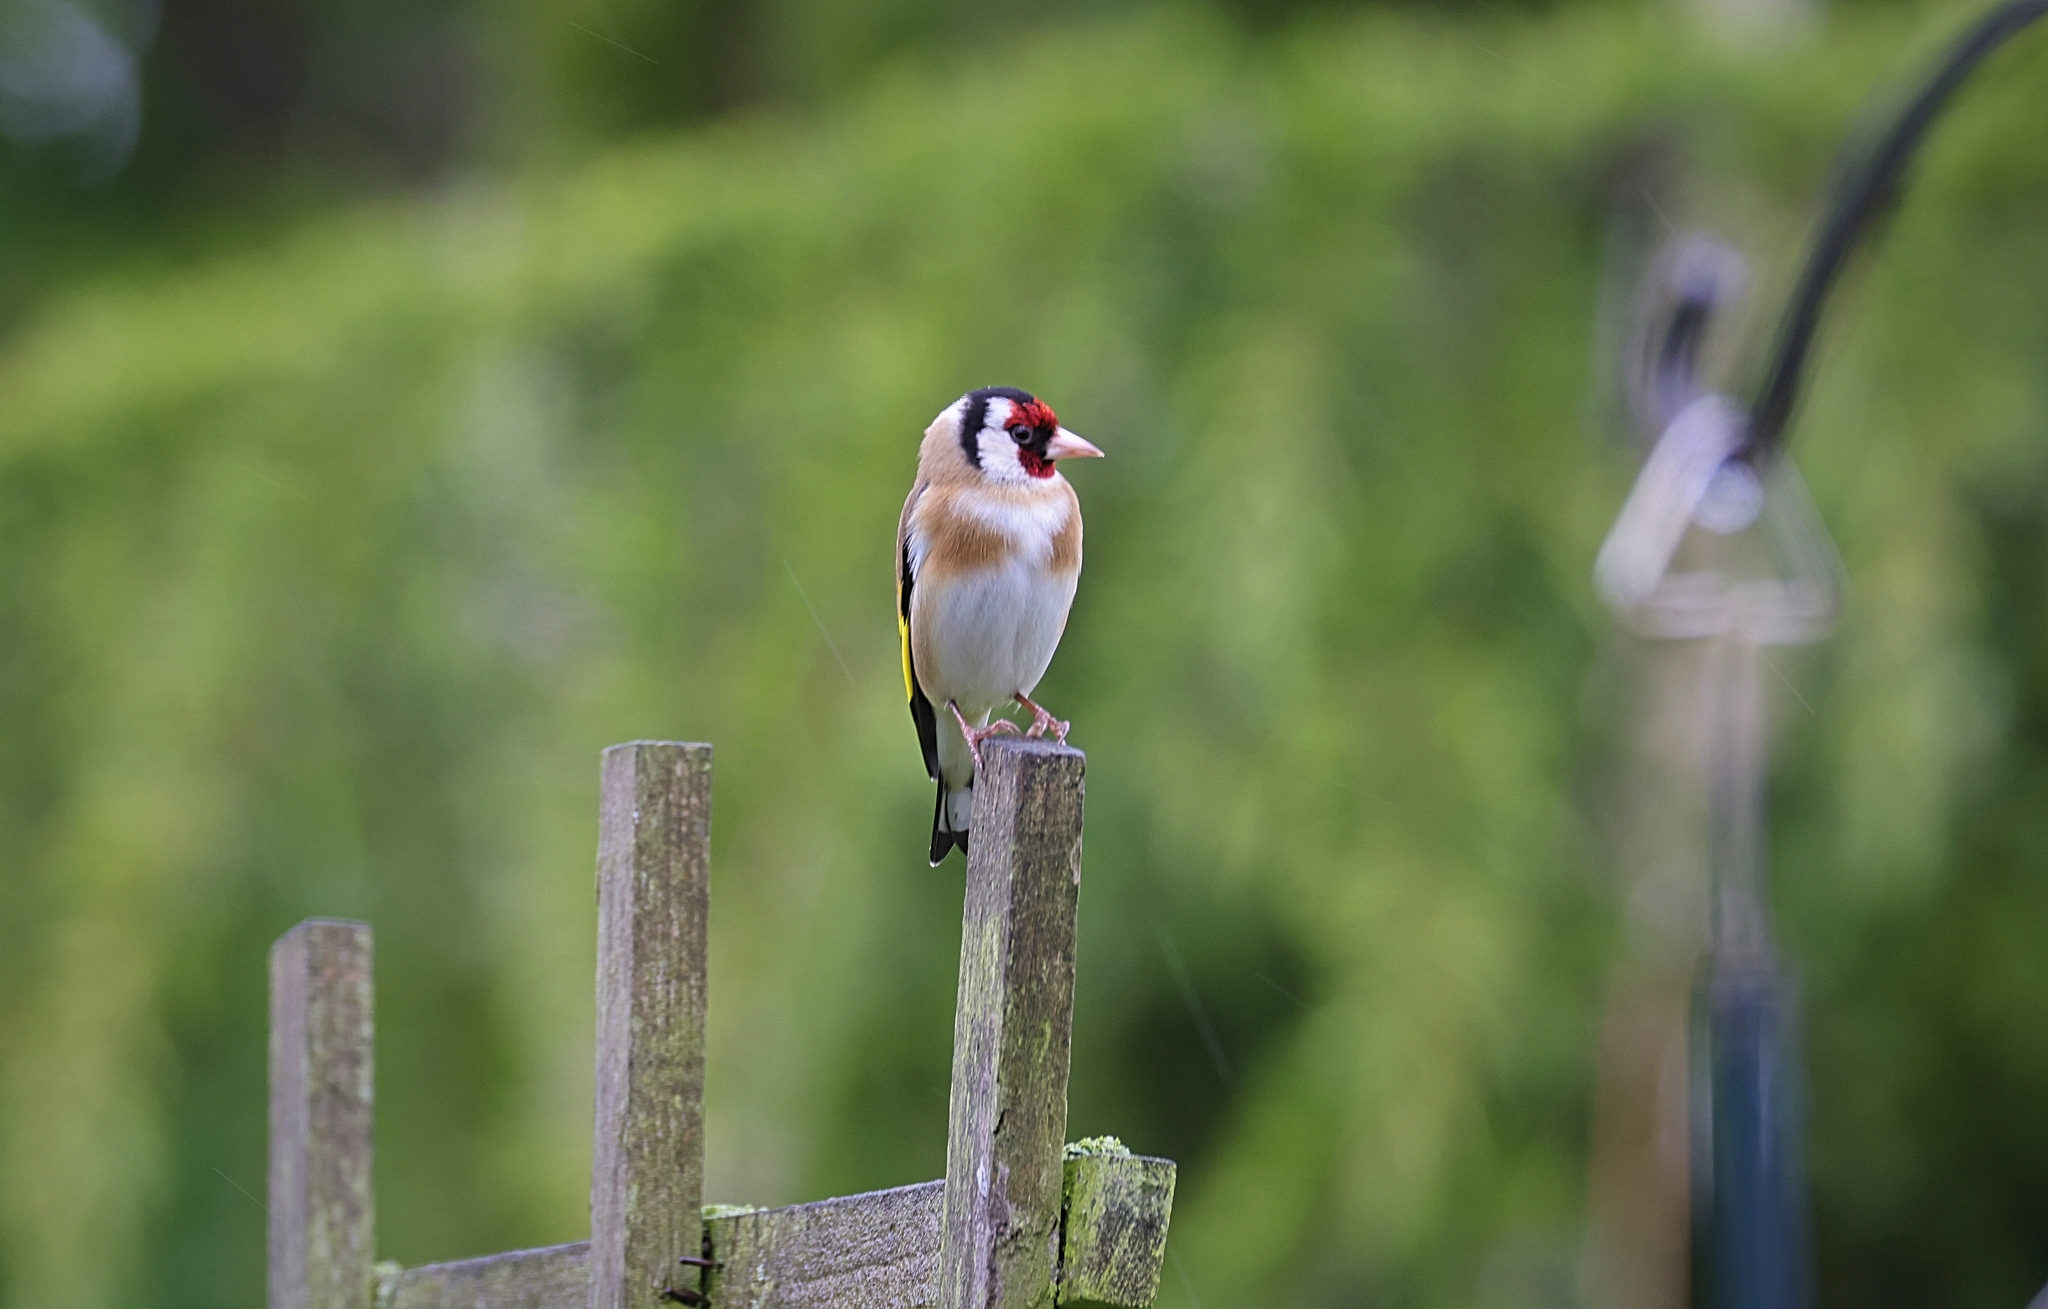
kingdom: Animalia
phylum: Chordata
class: Aves
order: Passeriformes
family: Fringillidae
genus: Carduelis
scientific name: Carduelis carduelis
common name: European goldfinch
